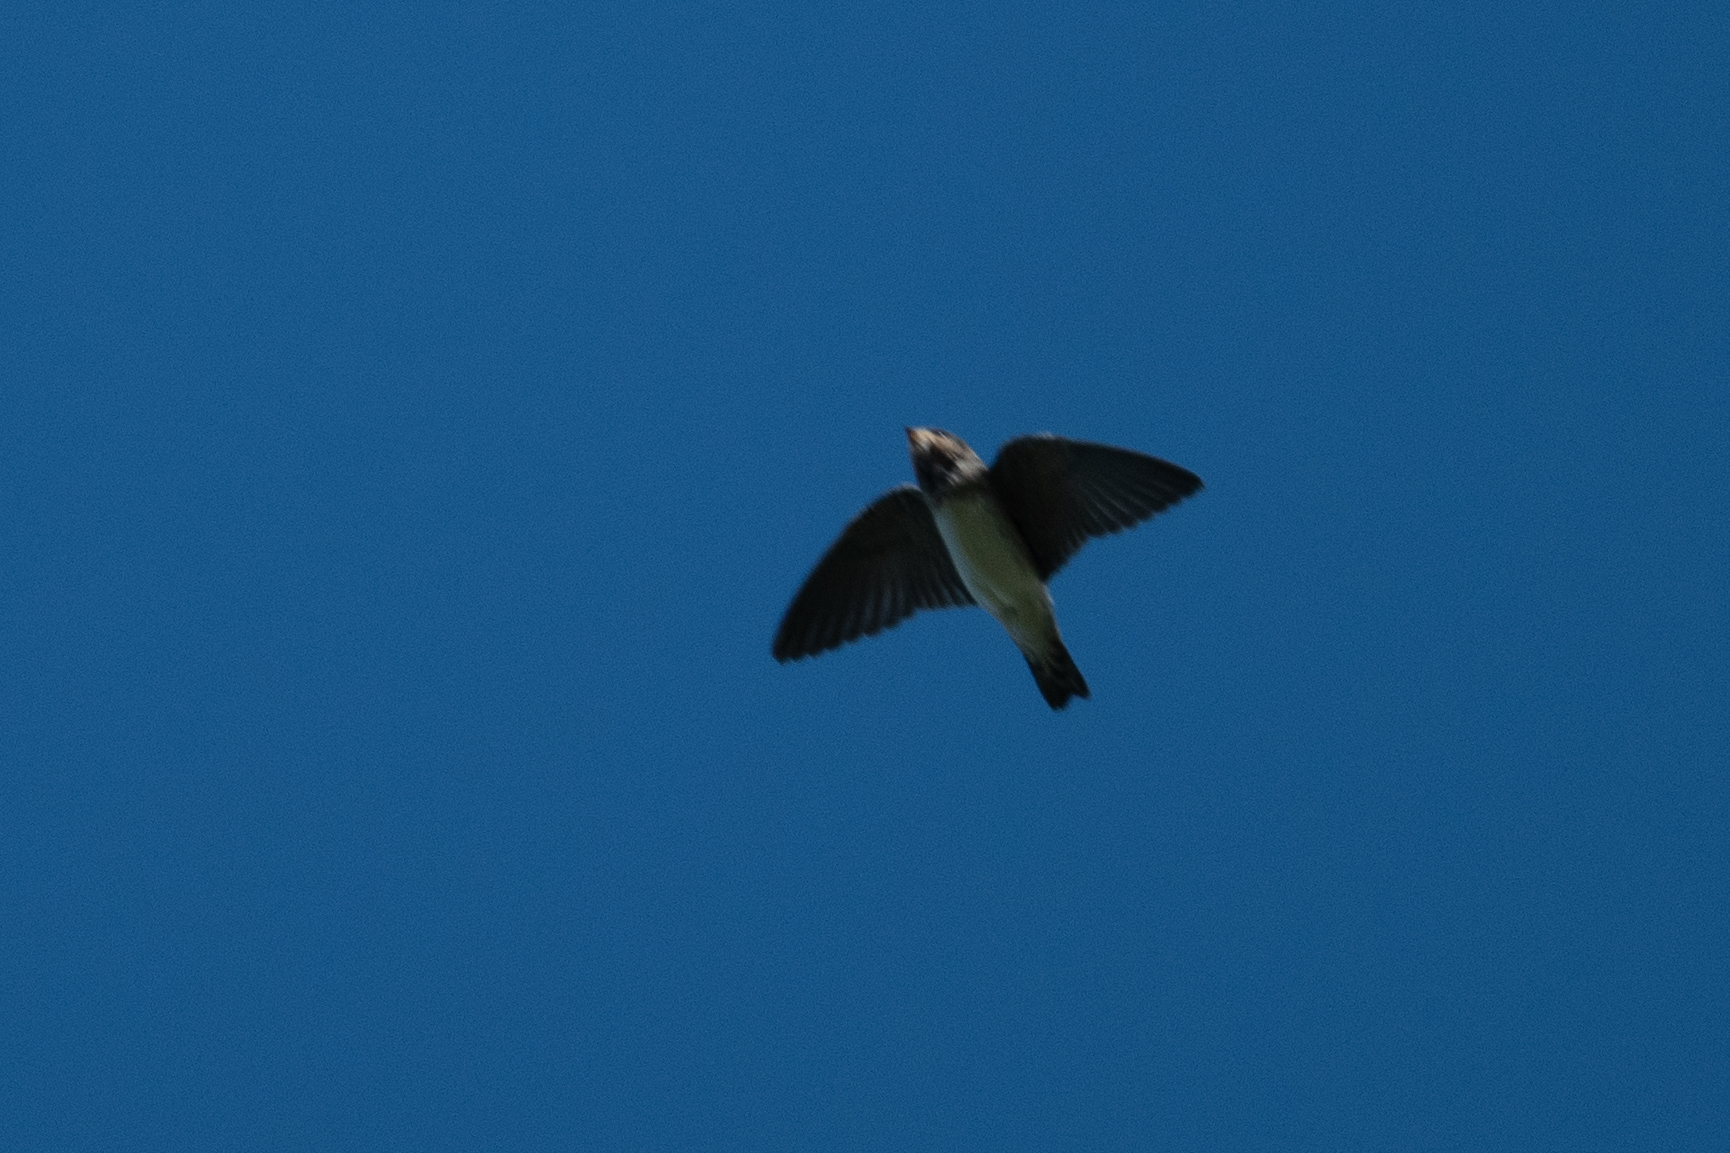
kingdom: Animalia
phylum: Chordata
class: Aves
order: Passeriformes
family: Hirundinidae
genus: Petrochelidon
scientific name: Petrochelidon pyrrhonota
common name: American cliff swallow
